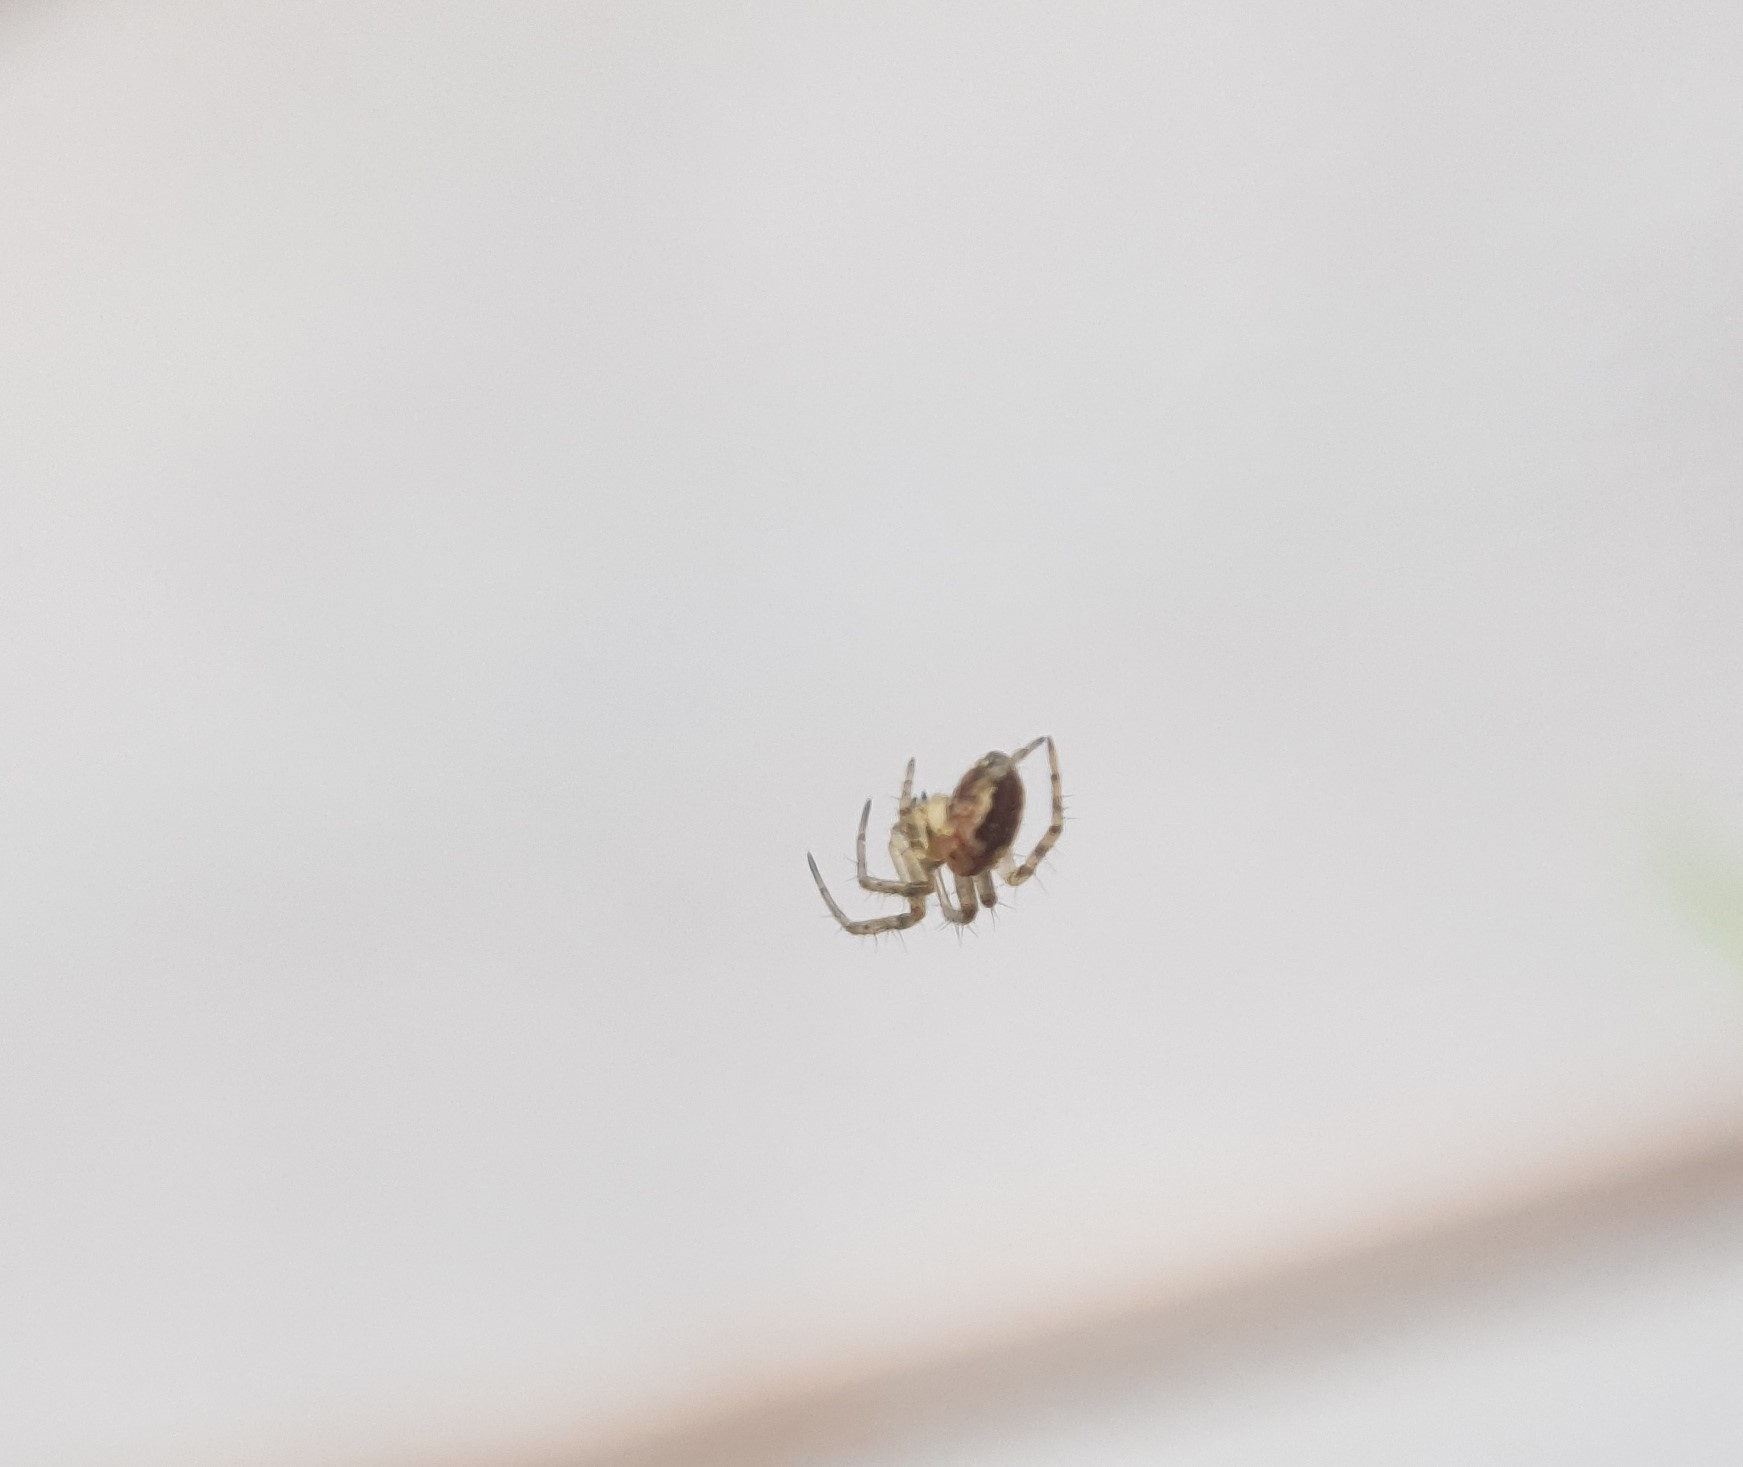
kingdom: Animalia
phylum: Arthropoda
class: Arachnida
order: Araneae
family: Araneidae
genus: Mangora
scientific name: Mangora acalypha
